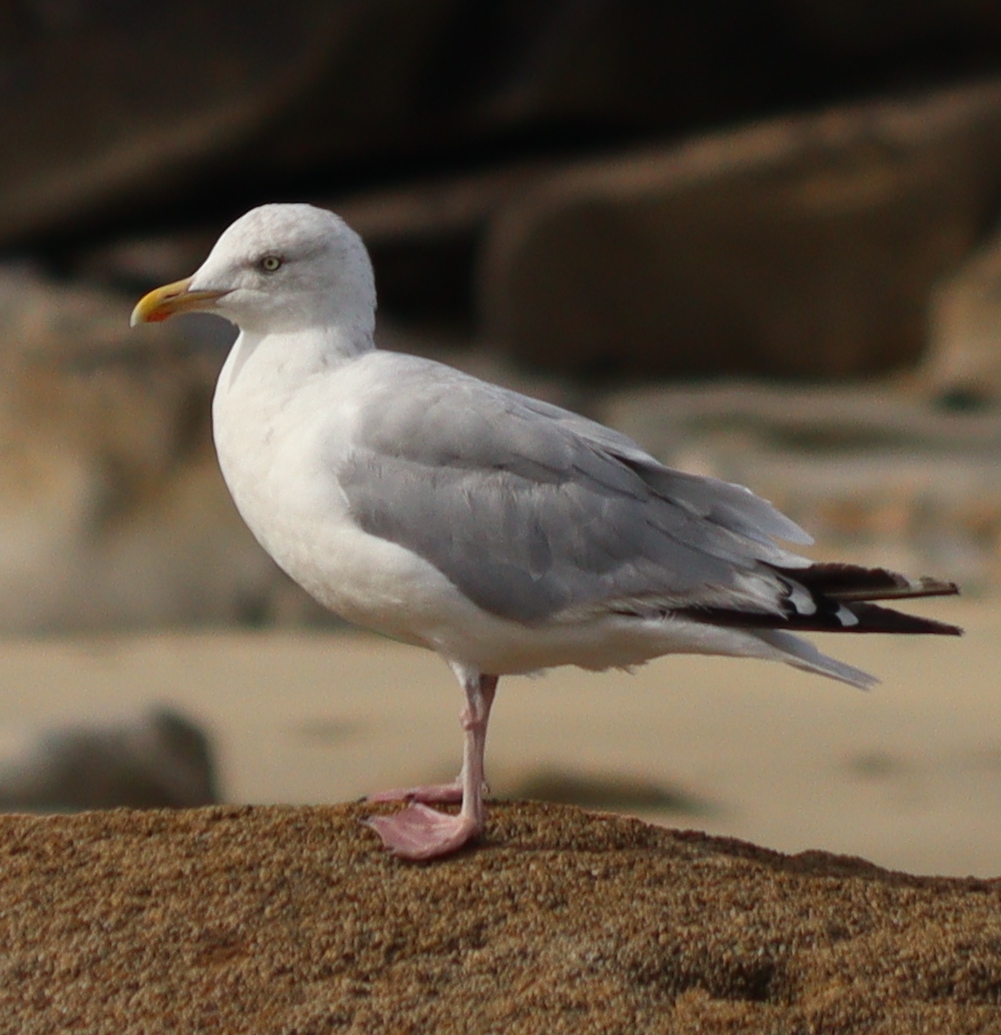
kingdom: Animalia
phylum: Chordata
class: Aves
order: Charadriiformes
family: Laridae
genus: Larus
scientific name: Larus argentatus
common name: Herring gull
